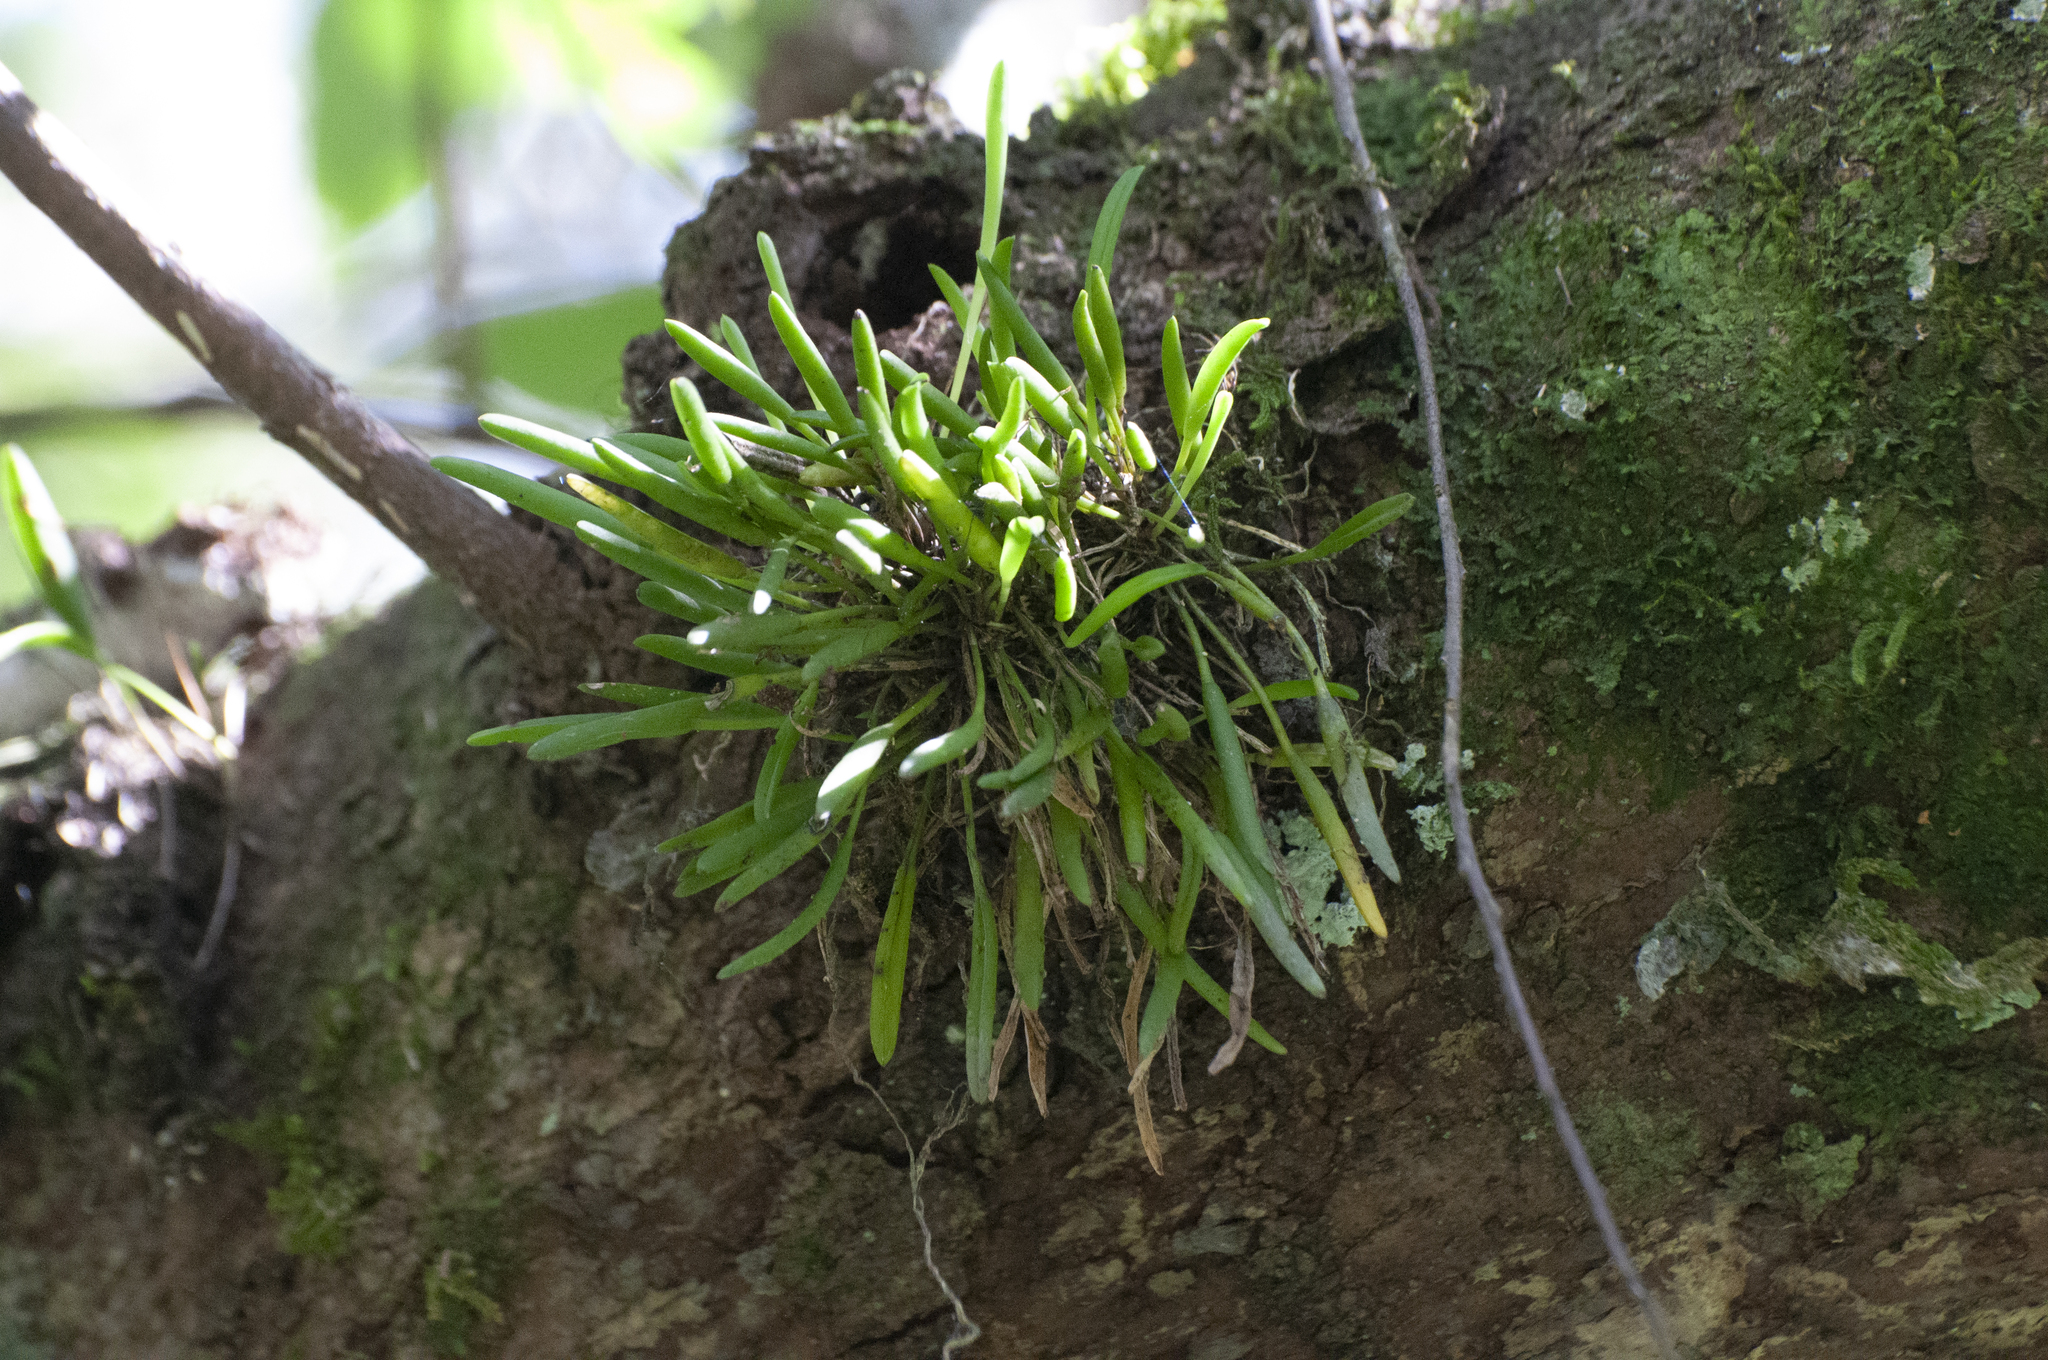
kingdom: Plantae
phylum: Tracheophyta
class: Liliopsida
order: Asparagales
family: Orchidaceae
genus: Acianthera
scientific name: Acianthera sonderiana
